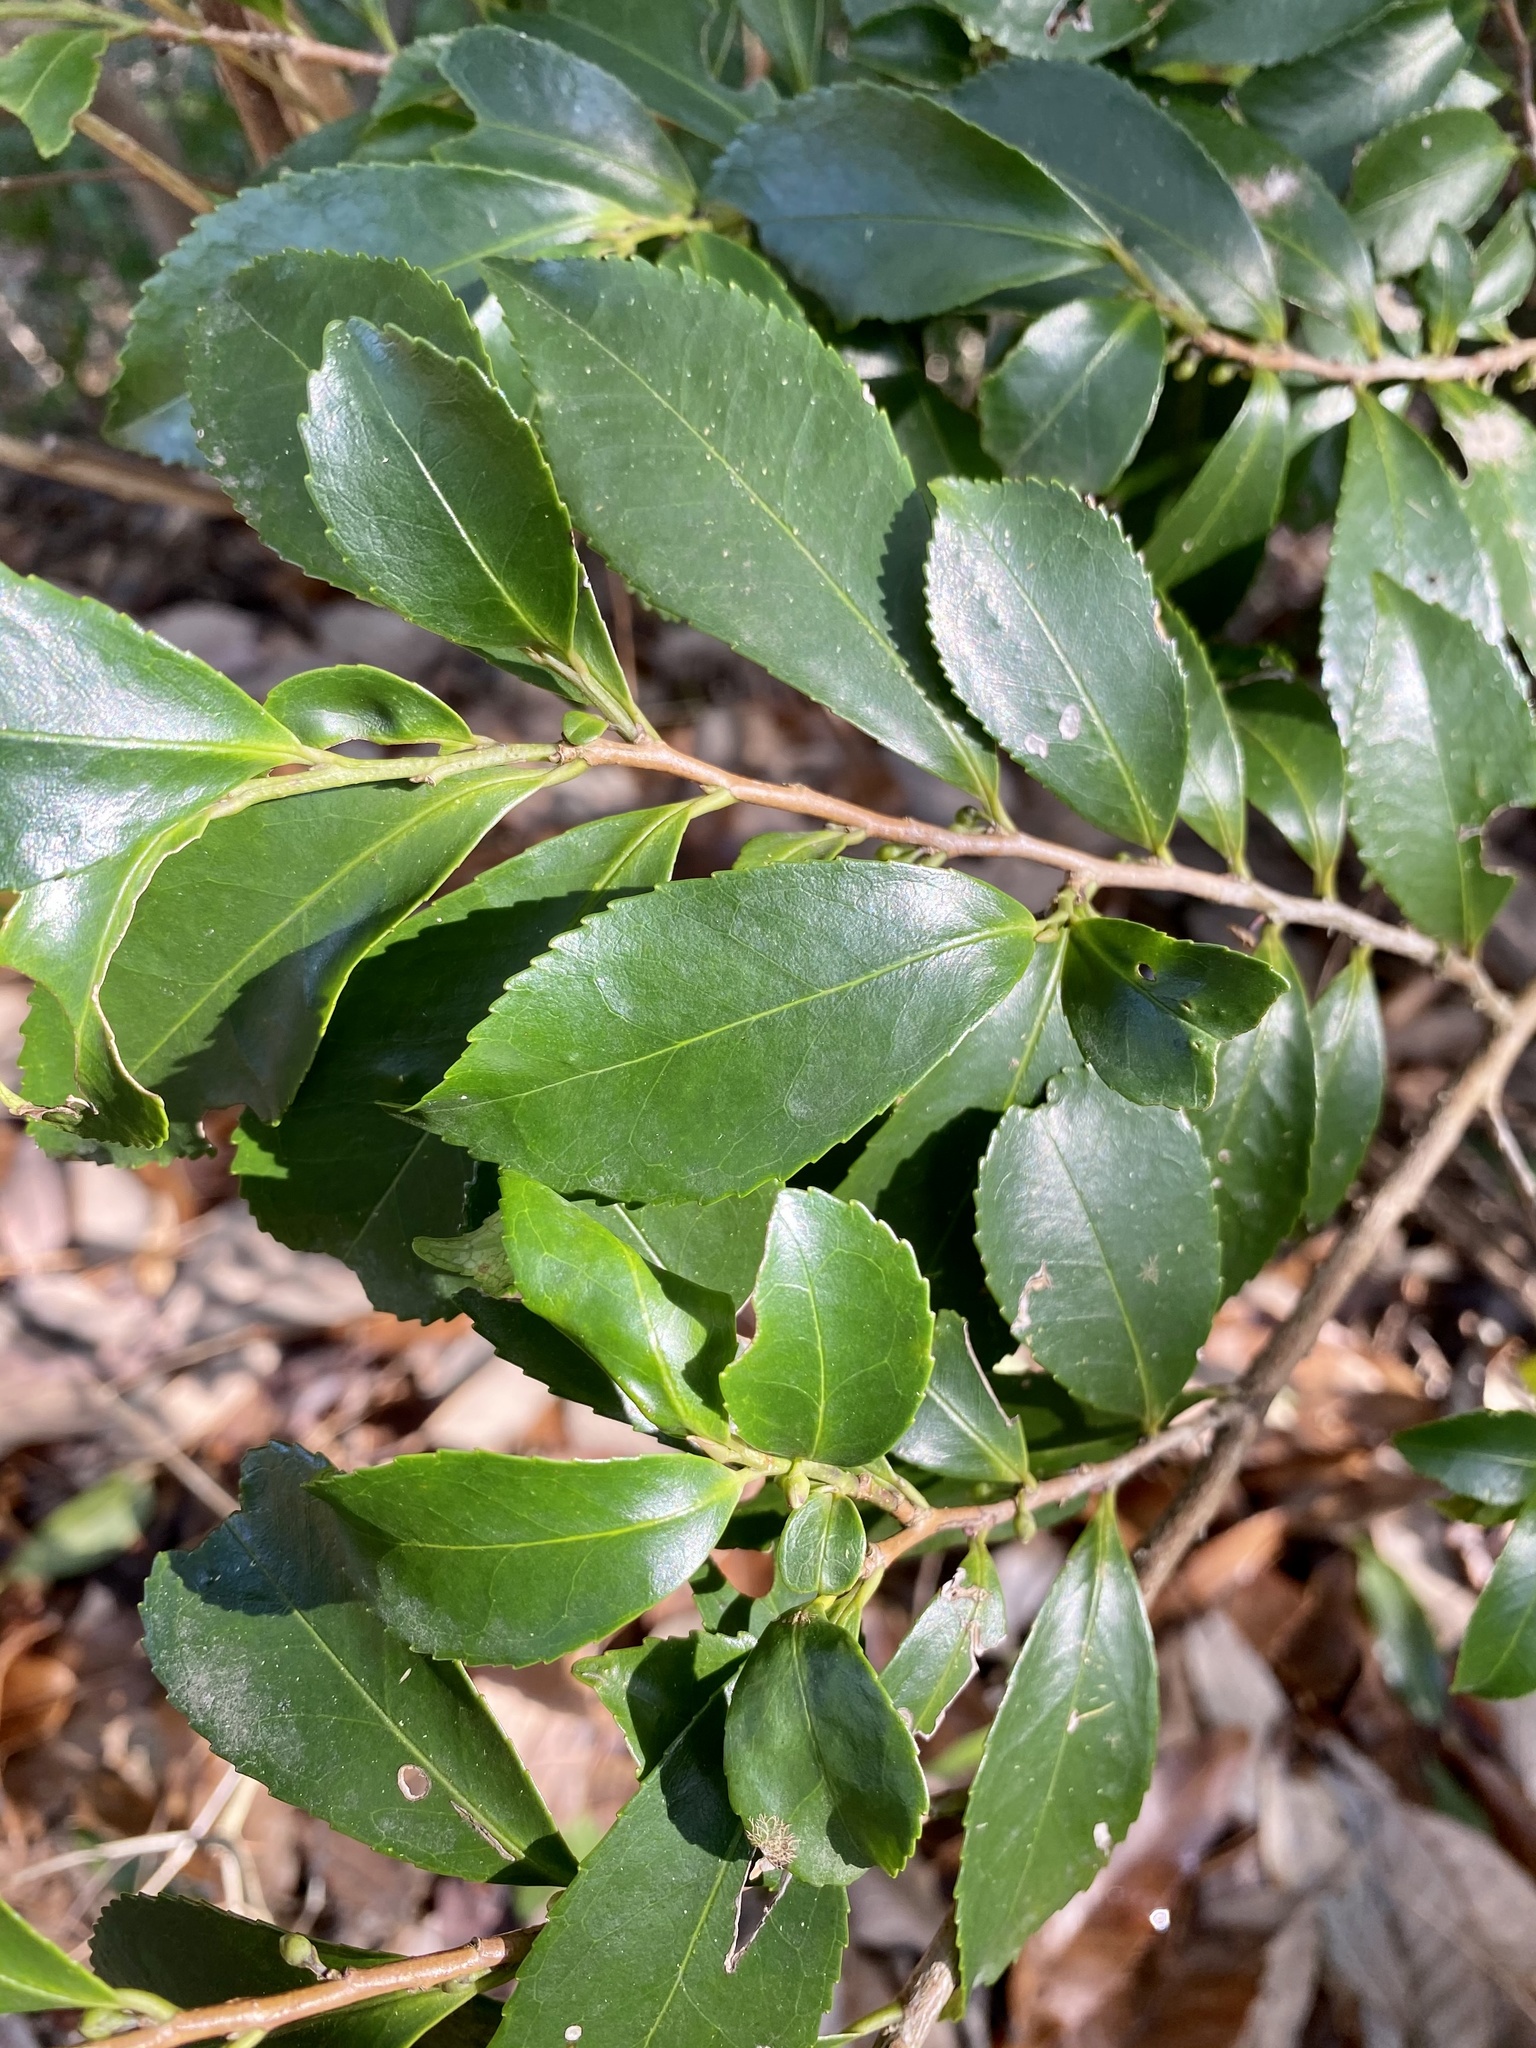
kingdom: Plantae
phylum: Tracheophyta
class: Magnoliopsida
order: Ericales
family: Pentaphylacaceae
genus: Eurya
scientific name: Eurya japonica
